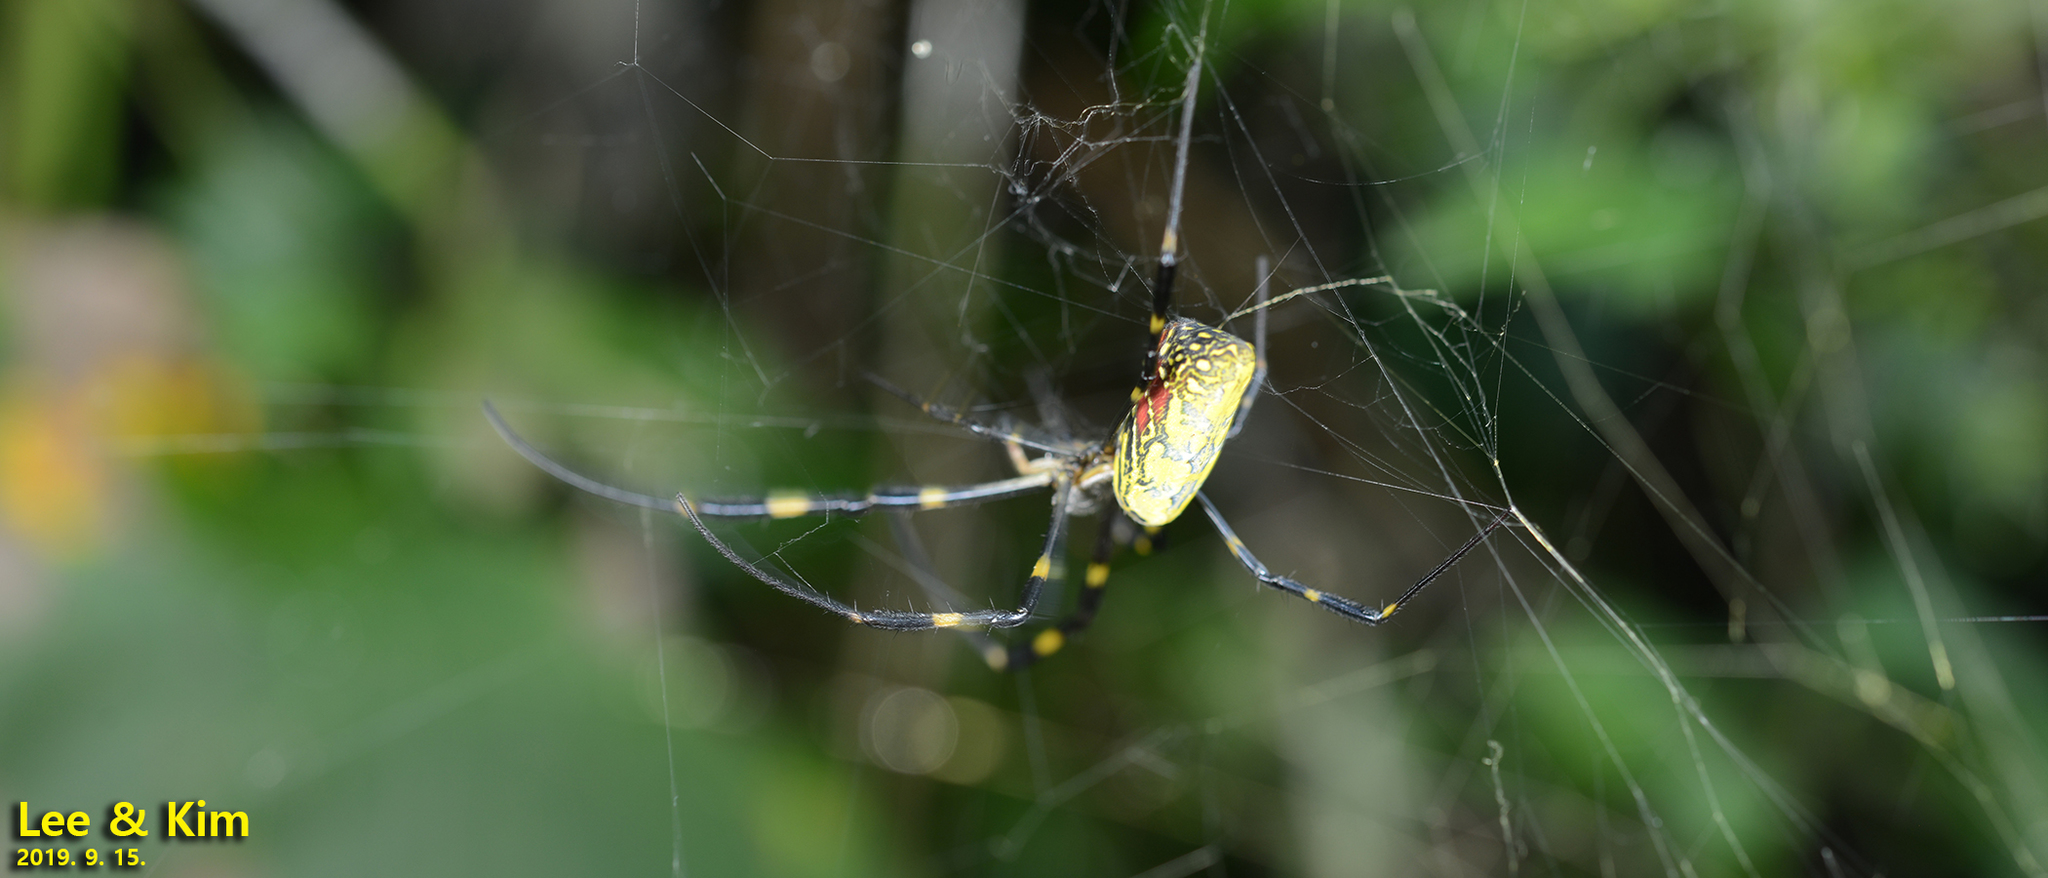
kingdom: Animalia
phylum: Arthropoda
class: Arachnida
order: Araneae
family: Araneidae
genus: Trichonephila
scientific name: Trichonephila clavata
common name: Jorō spider
